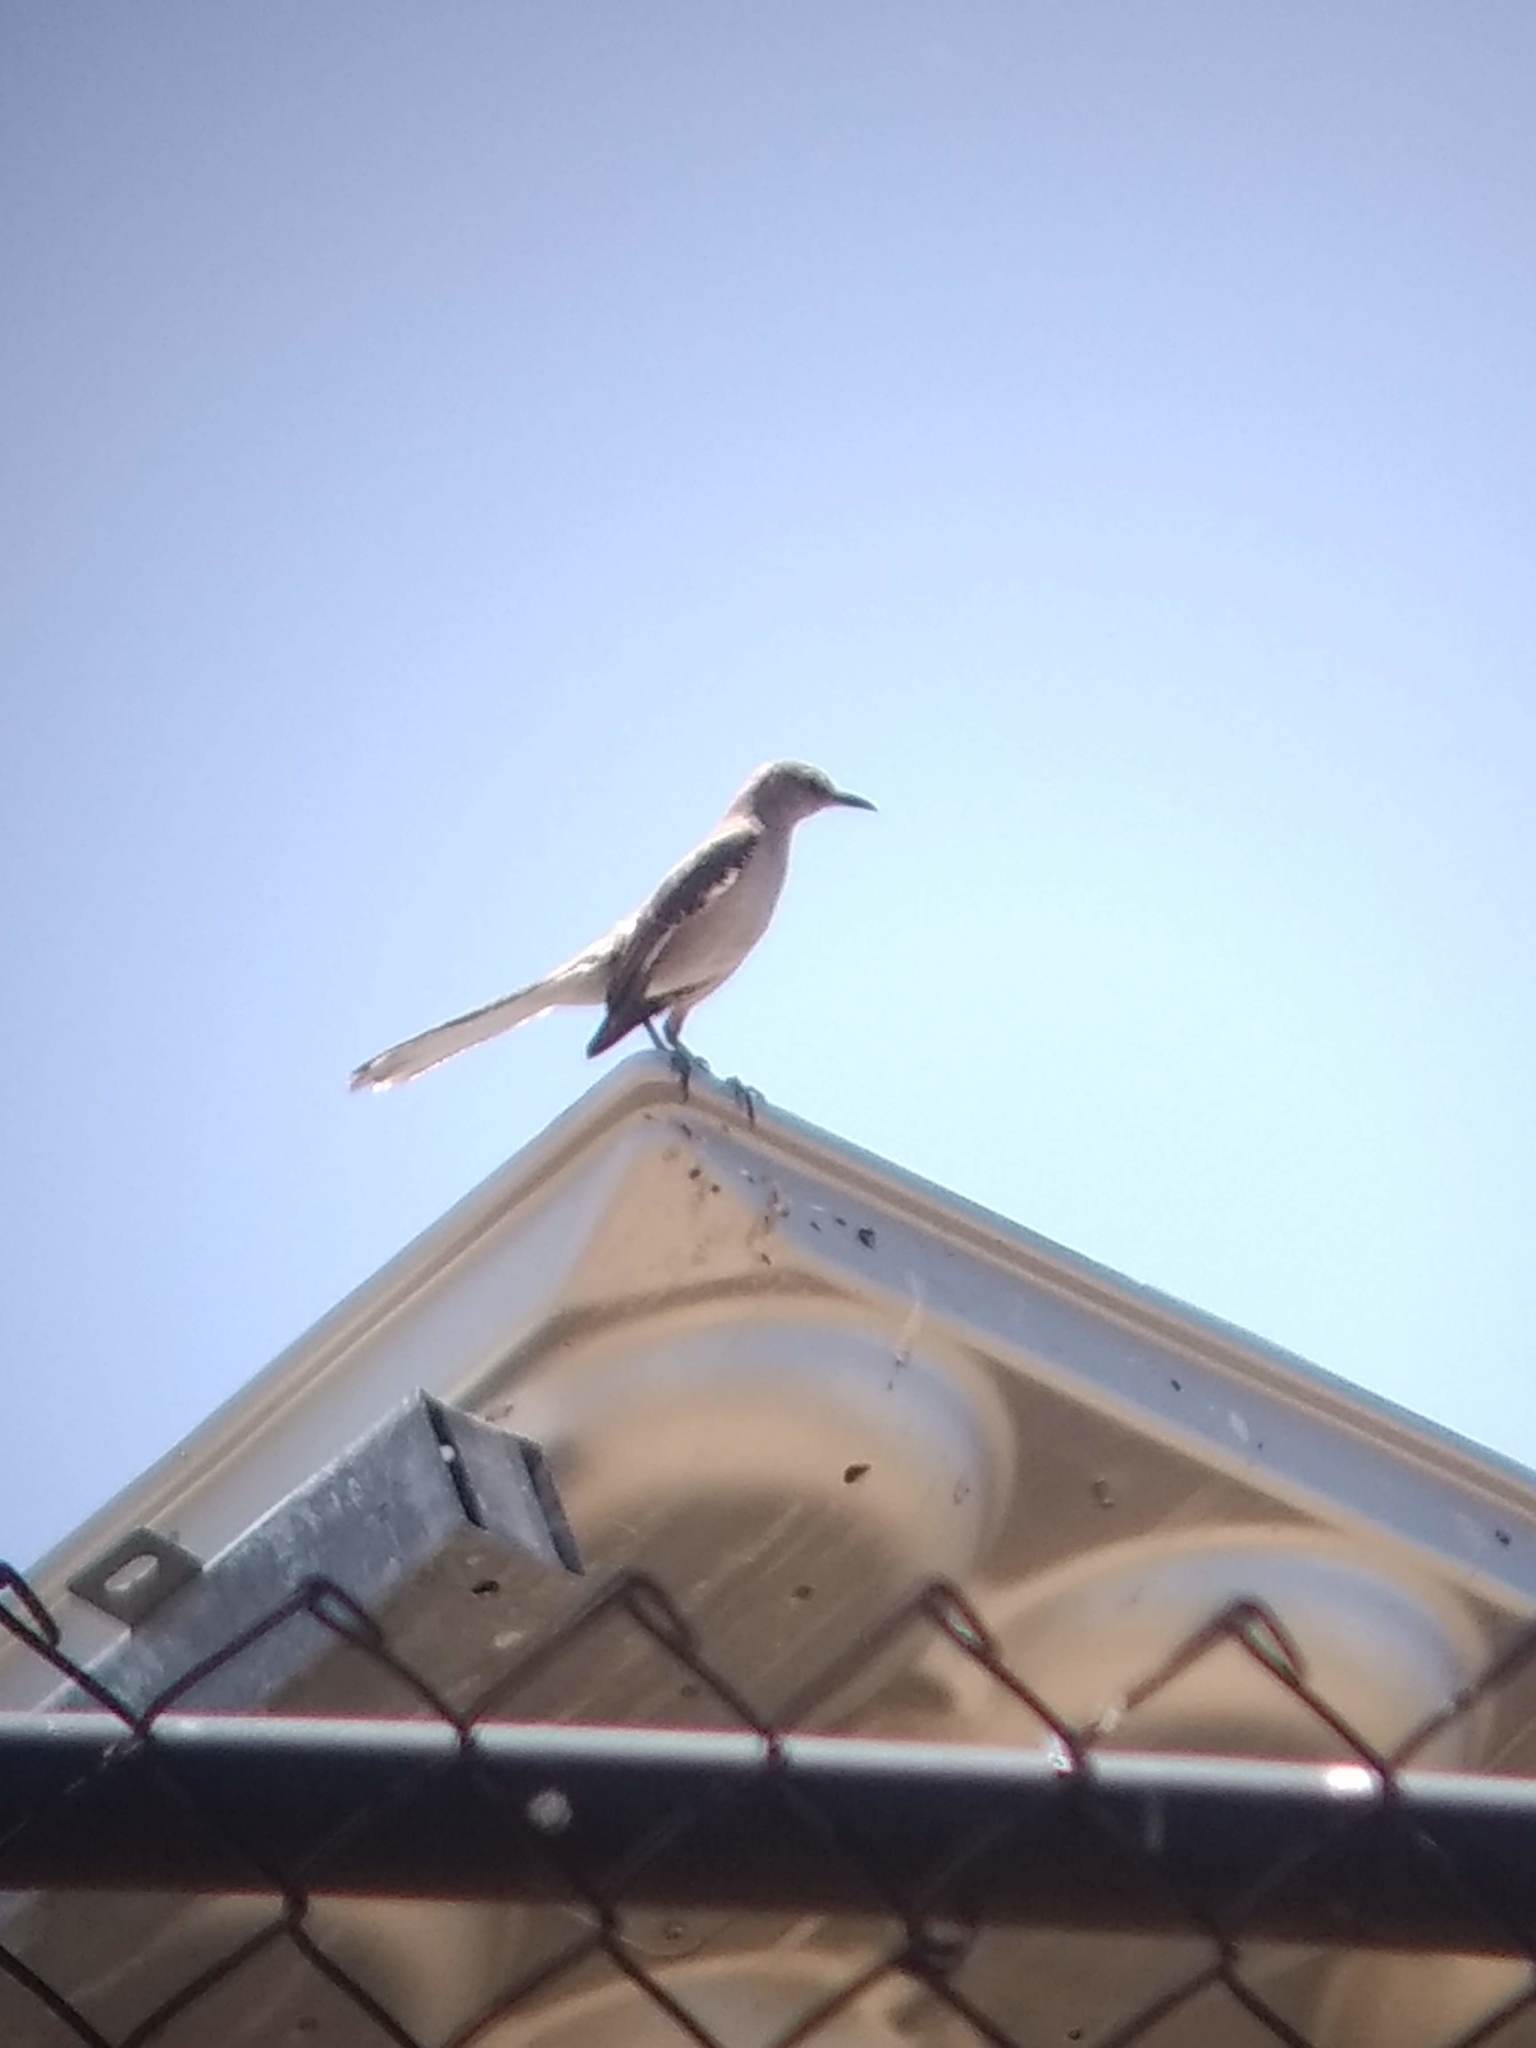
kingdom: Animalia
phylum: Chordata
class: Aves
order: Passeriformes
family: Mimidae
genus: Mimus
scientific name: Mimus polyglottos
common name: Northern mockingbird
